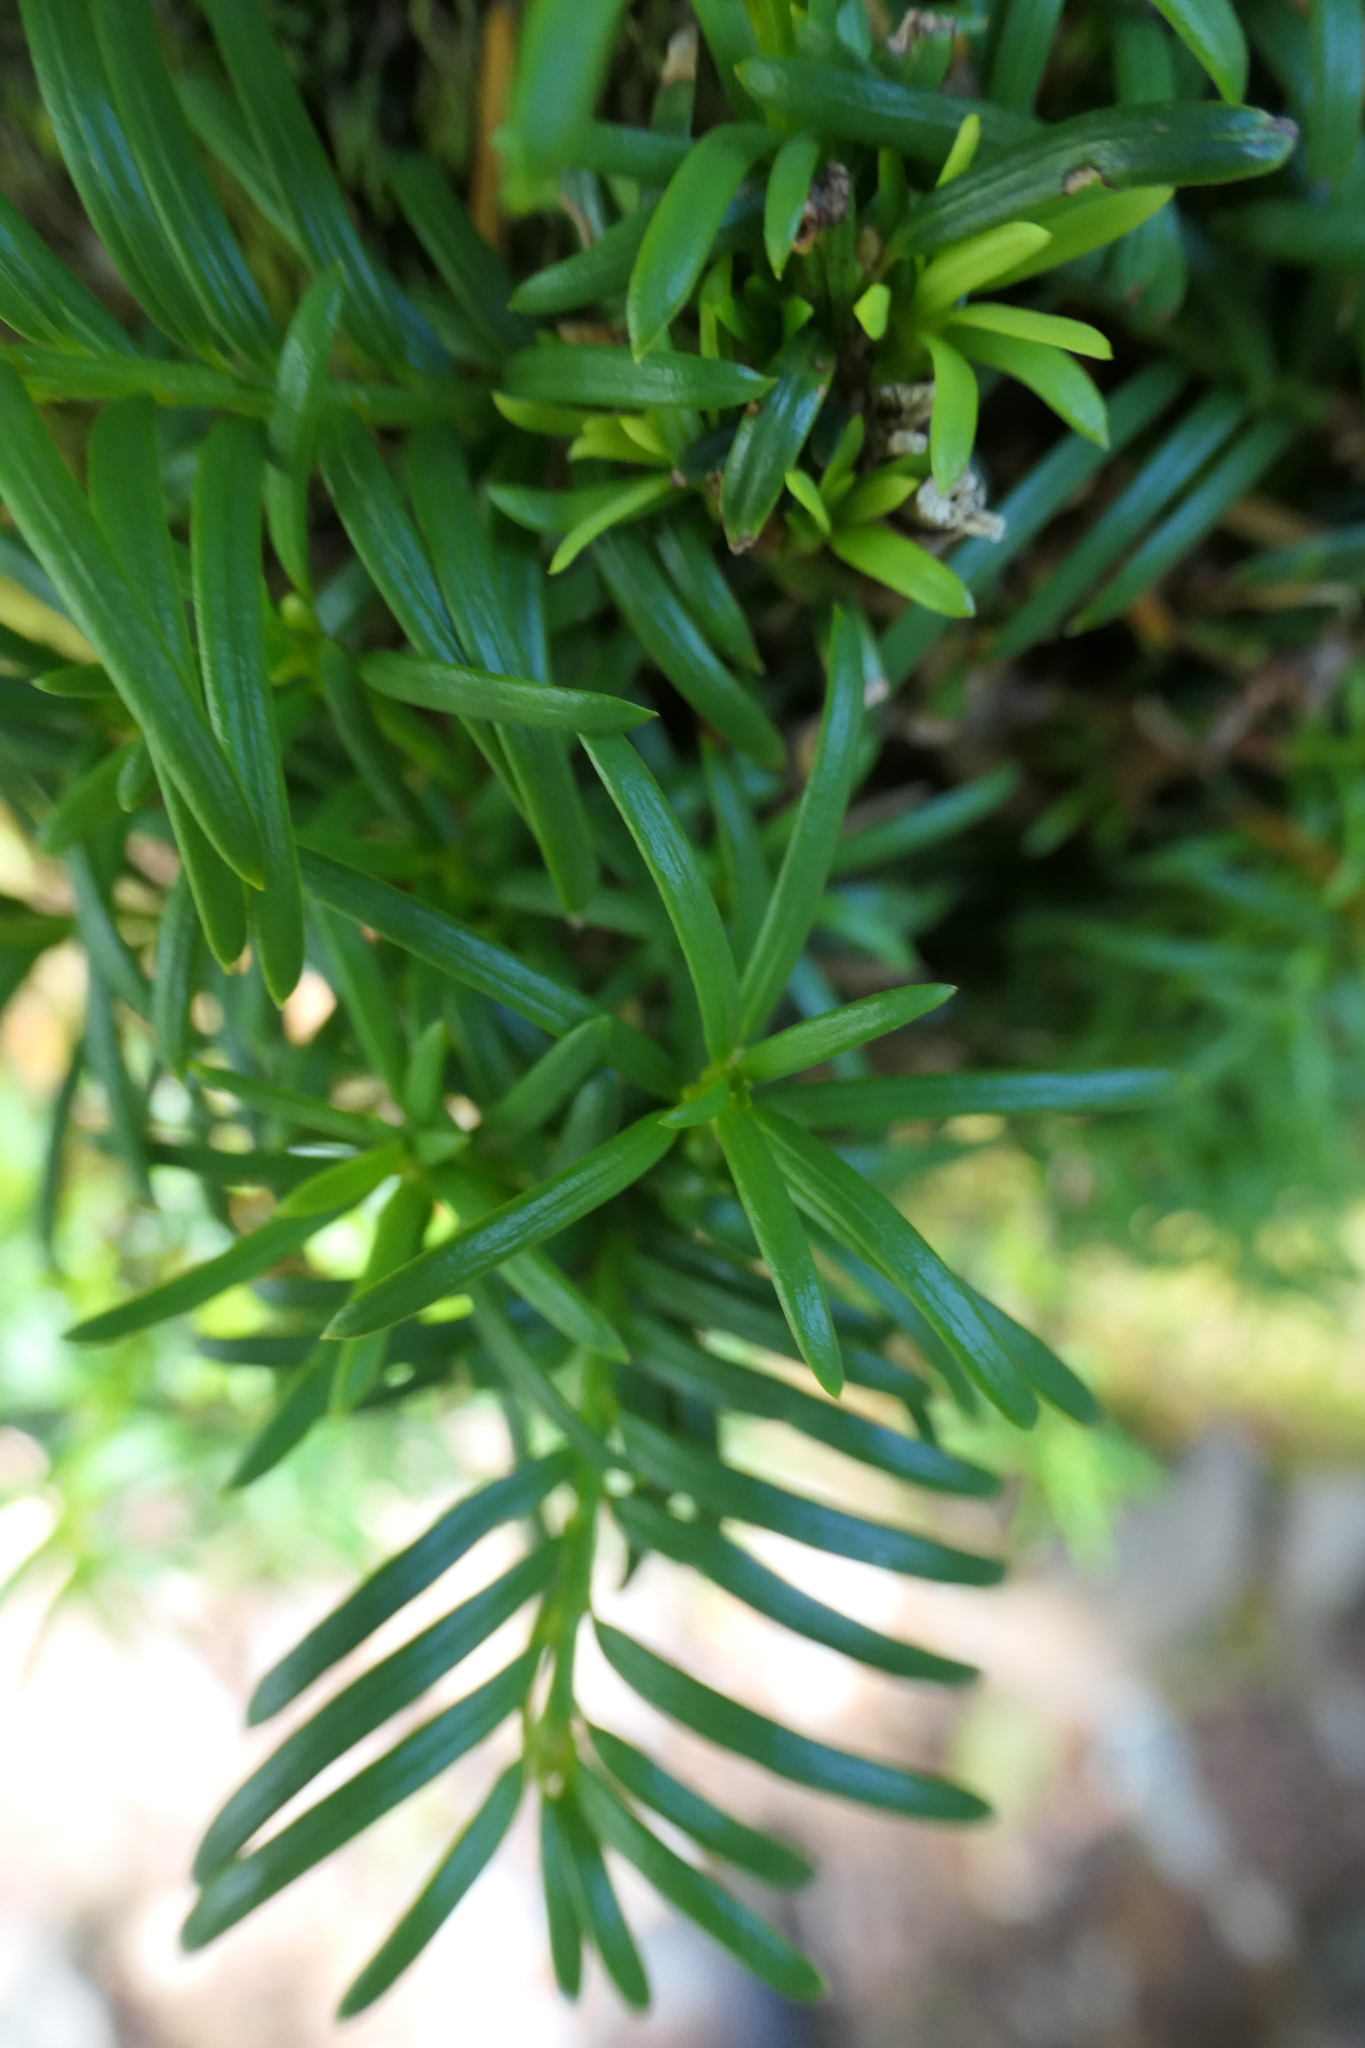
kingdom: Plantae
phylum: Tracheophyta
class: Pinopsida
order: Pinales
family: Taxaceae
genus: Taxus
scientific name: Taxus baccata
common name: Yew
